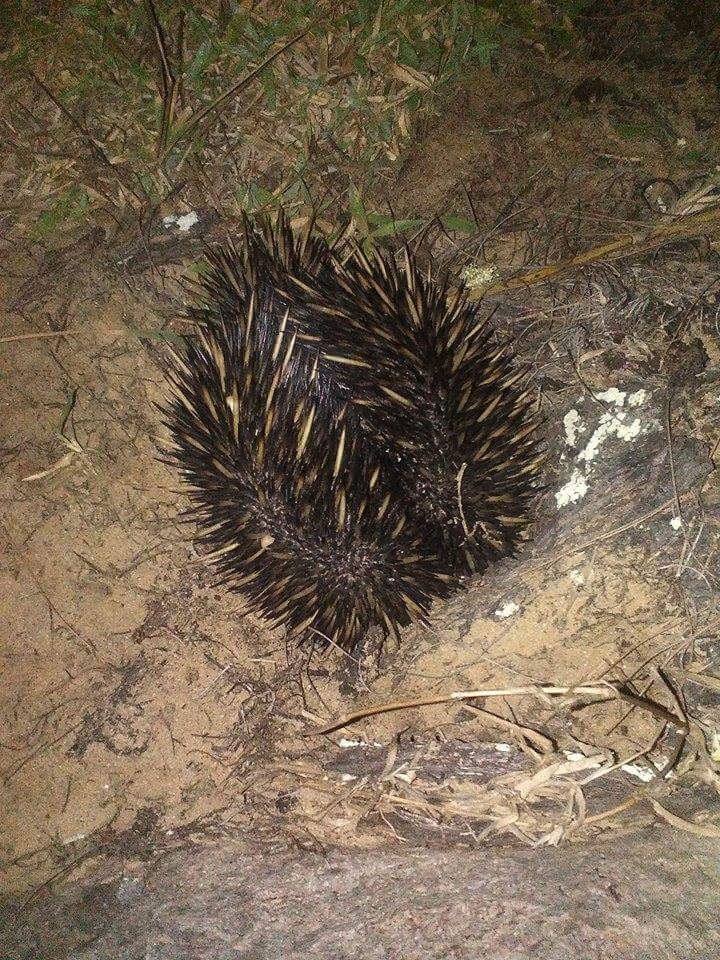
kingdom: Animalia
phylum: Chordata
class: Mammalia
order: Monotremata
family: Tachyglossidae
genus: Tachyglossus
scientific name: Tachyglossus aculeatus
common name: Short-beaked echidna
